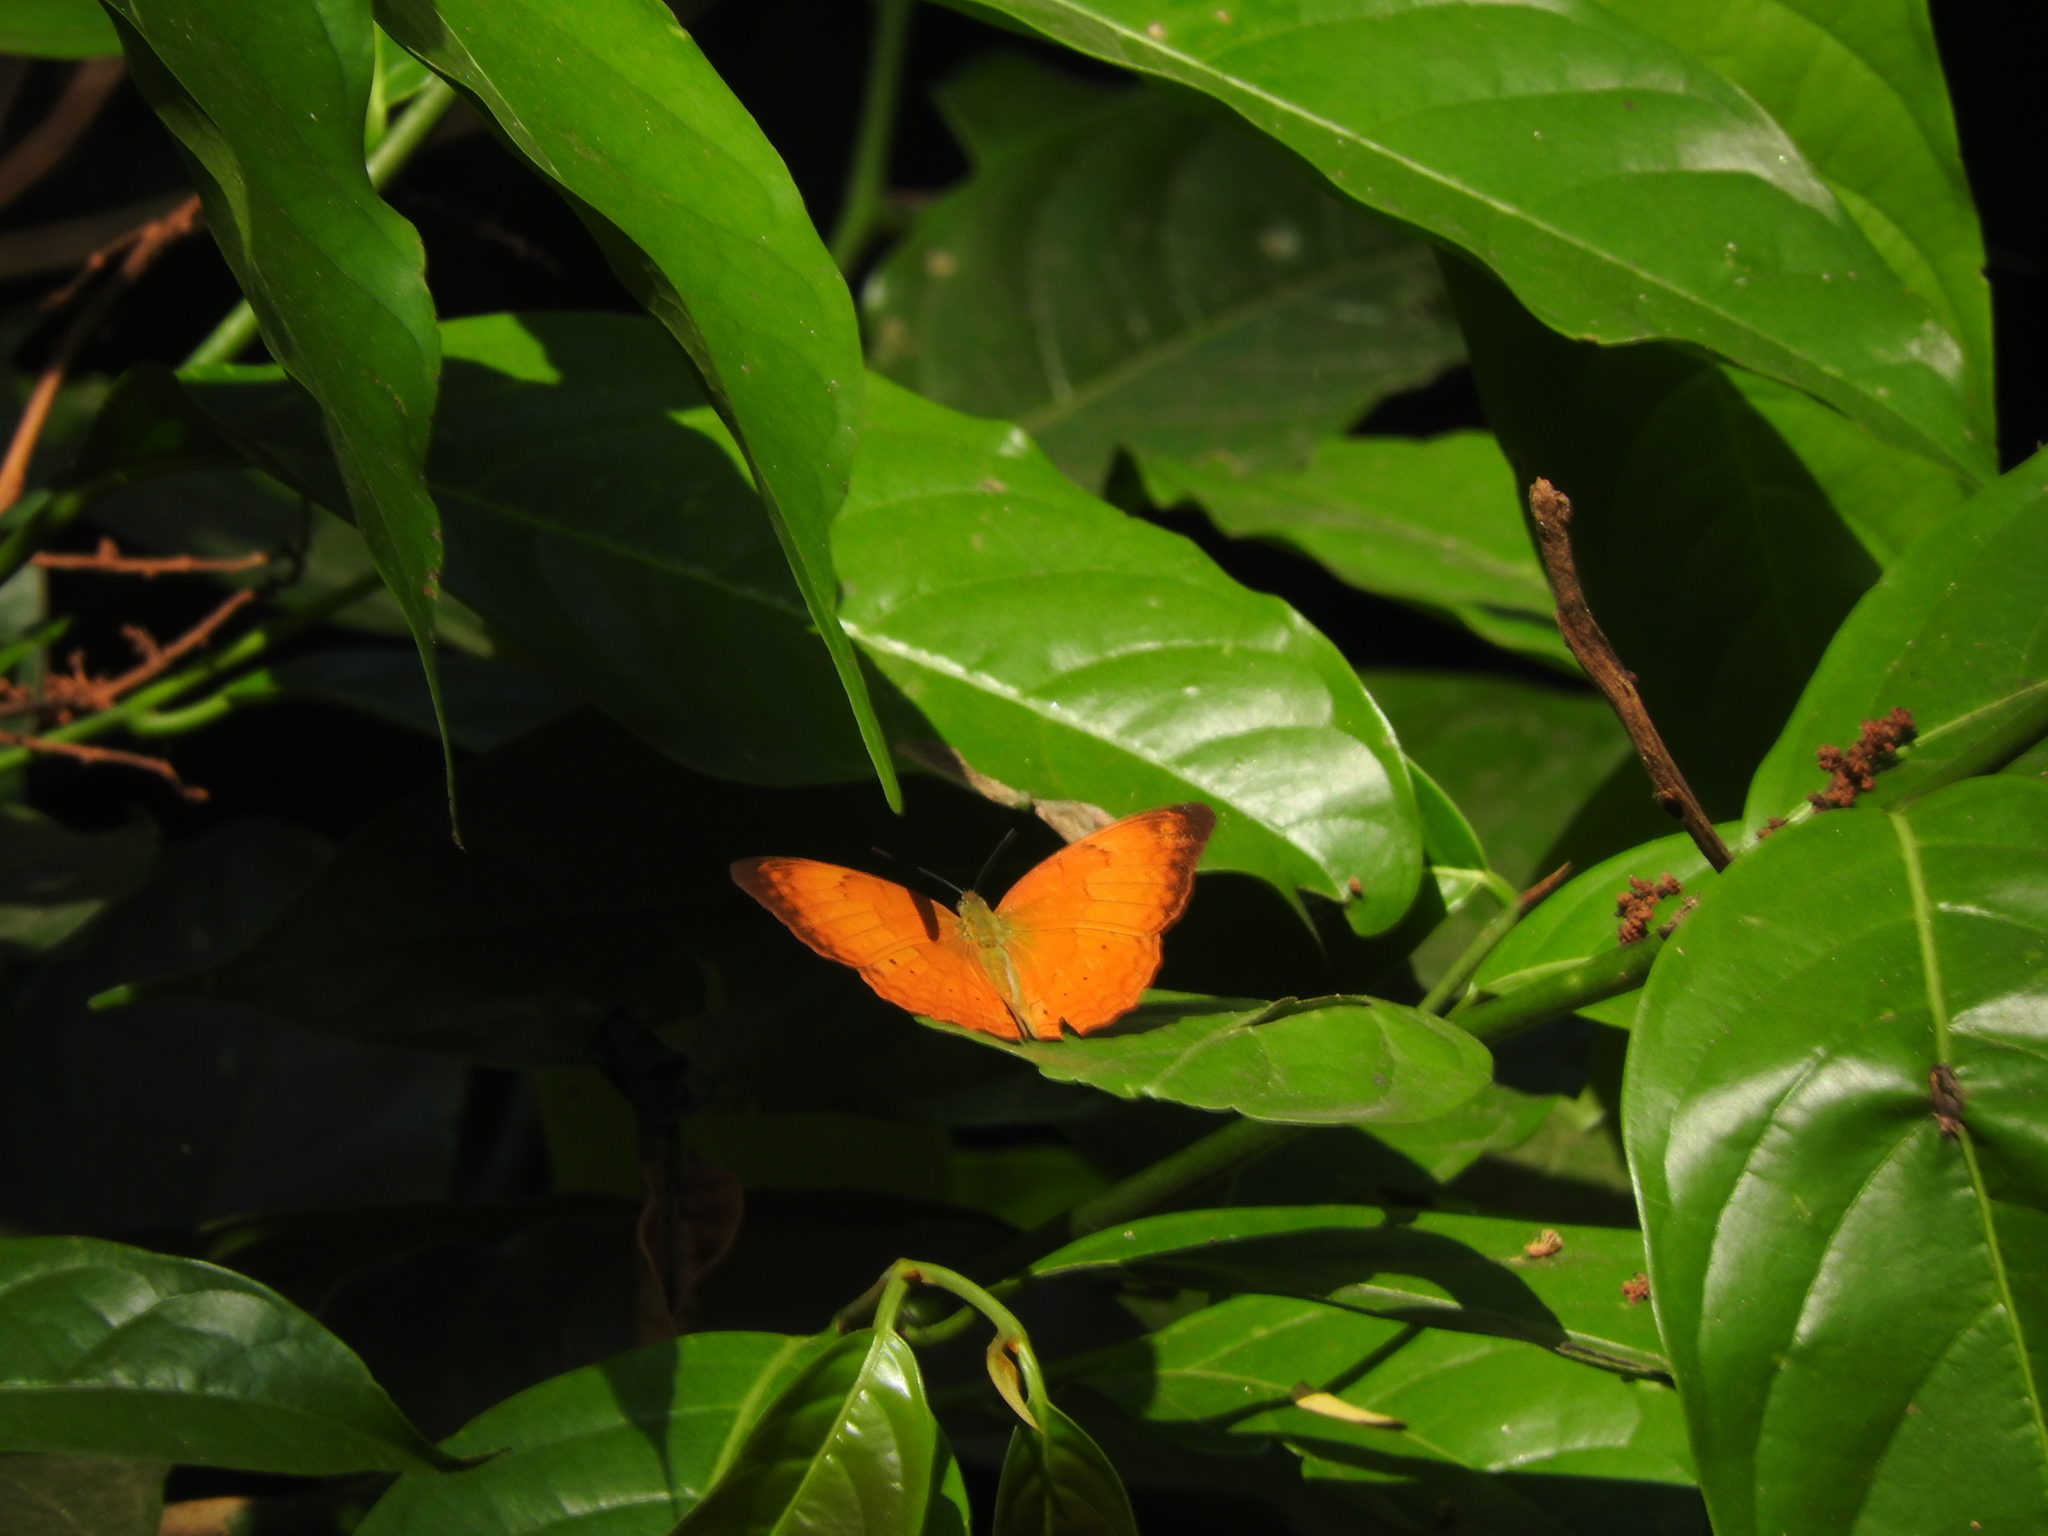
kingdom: Animalia
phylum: Arthropoda
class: Insecta
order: Lepidoptera
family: Nymphalidae
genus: Cirrochroa
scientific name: Cirrochroa thais
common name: Tamil yeoman
